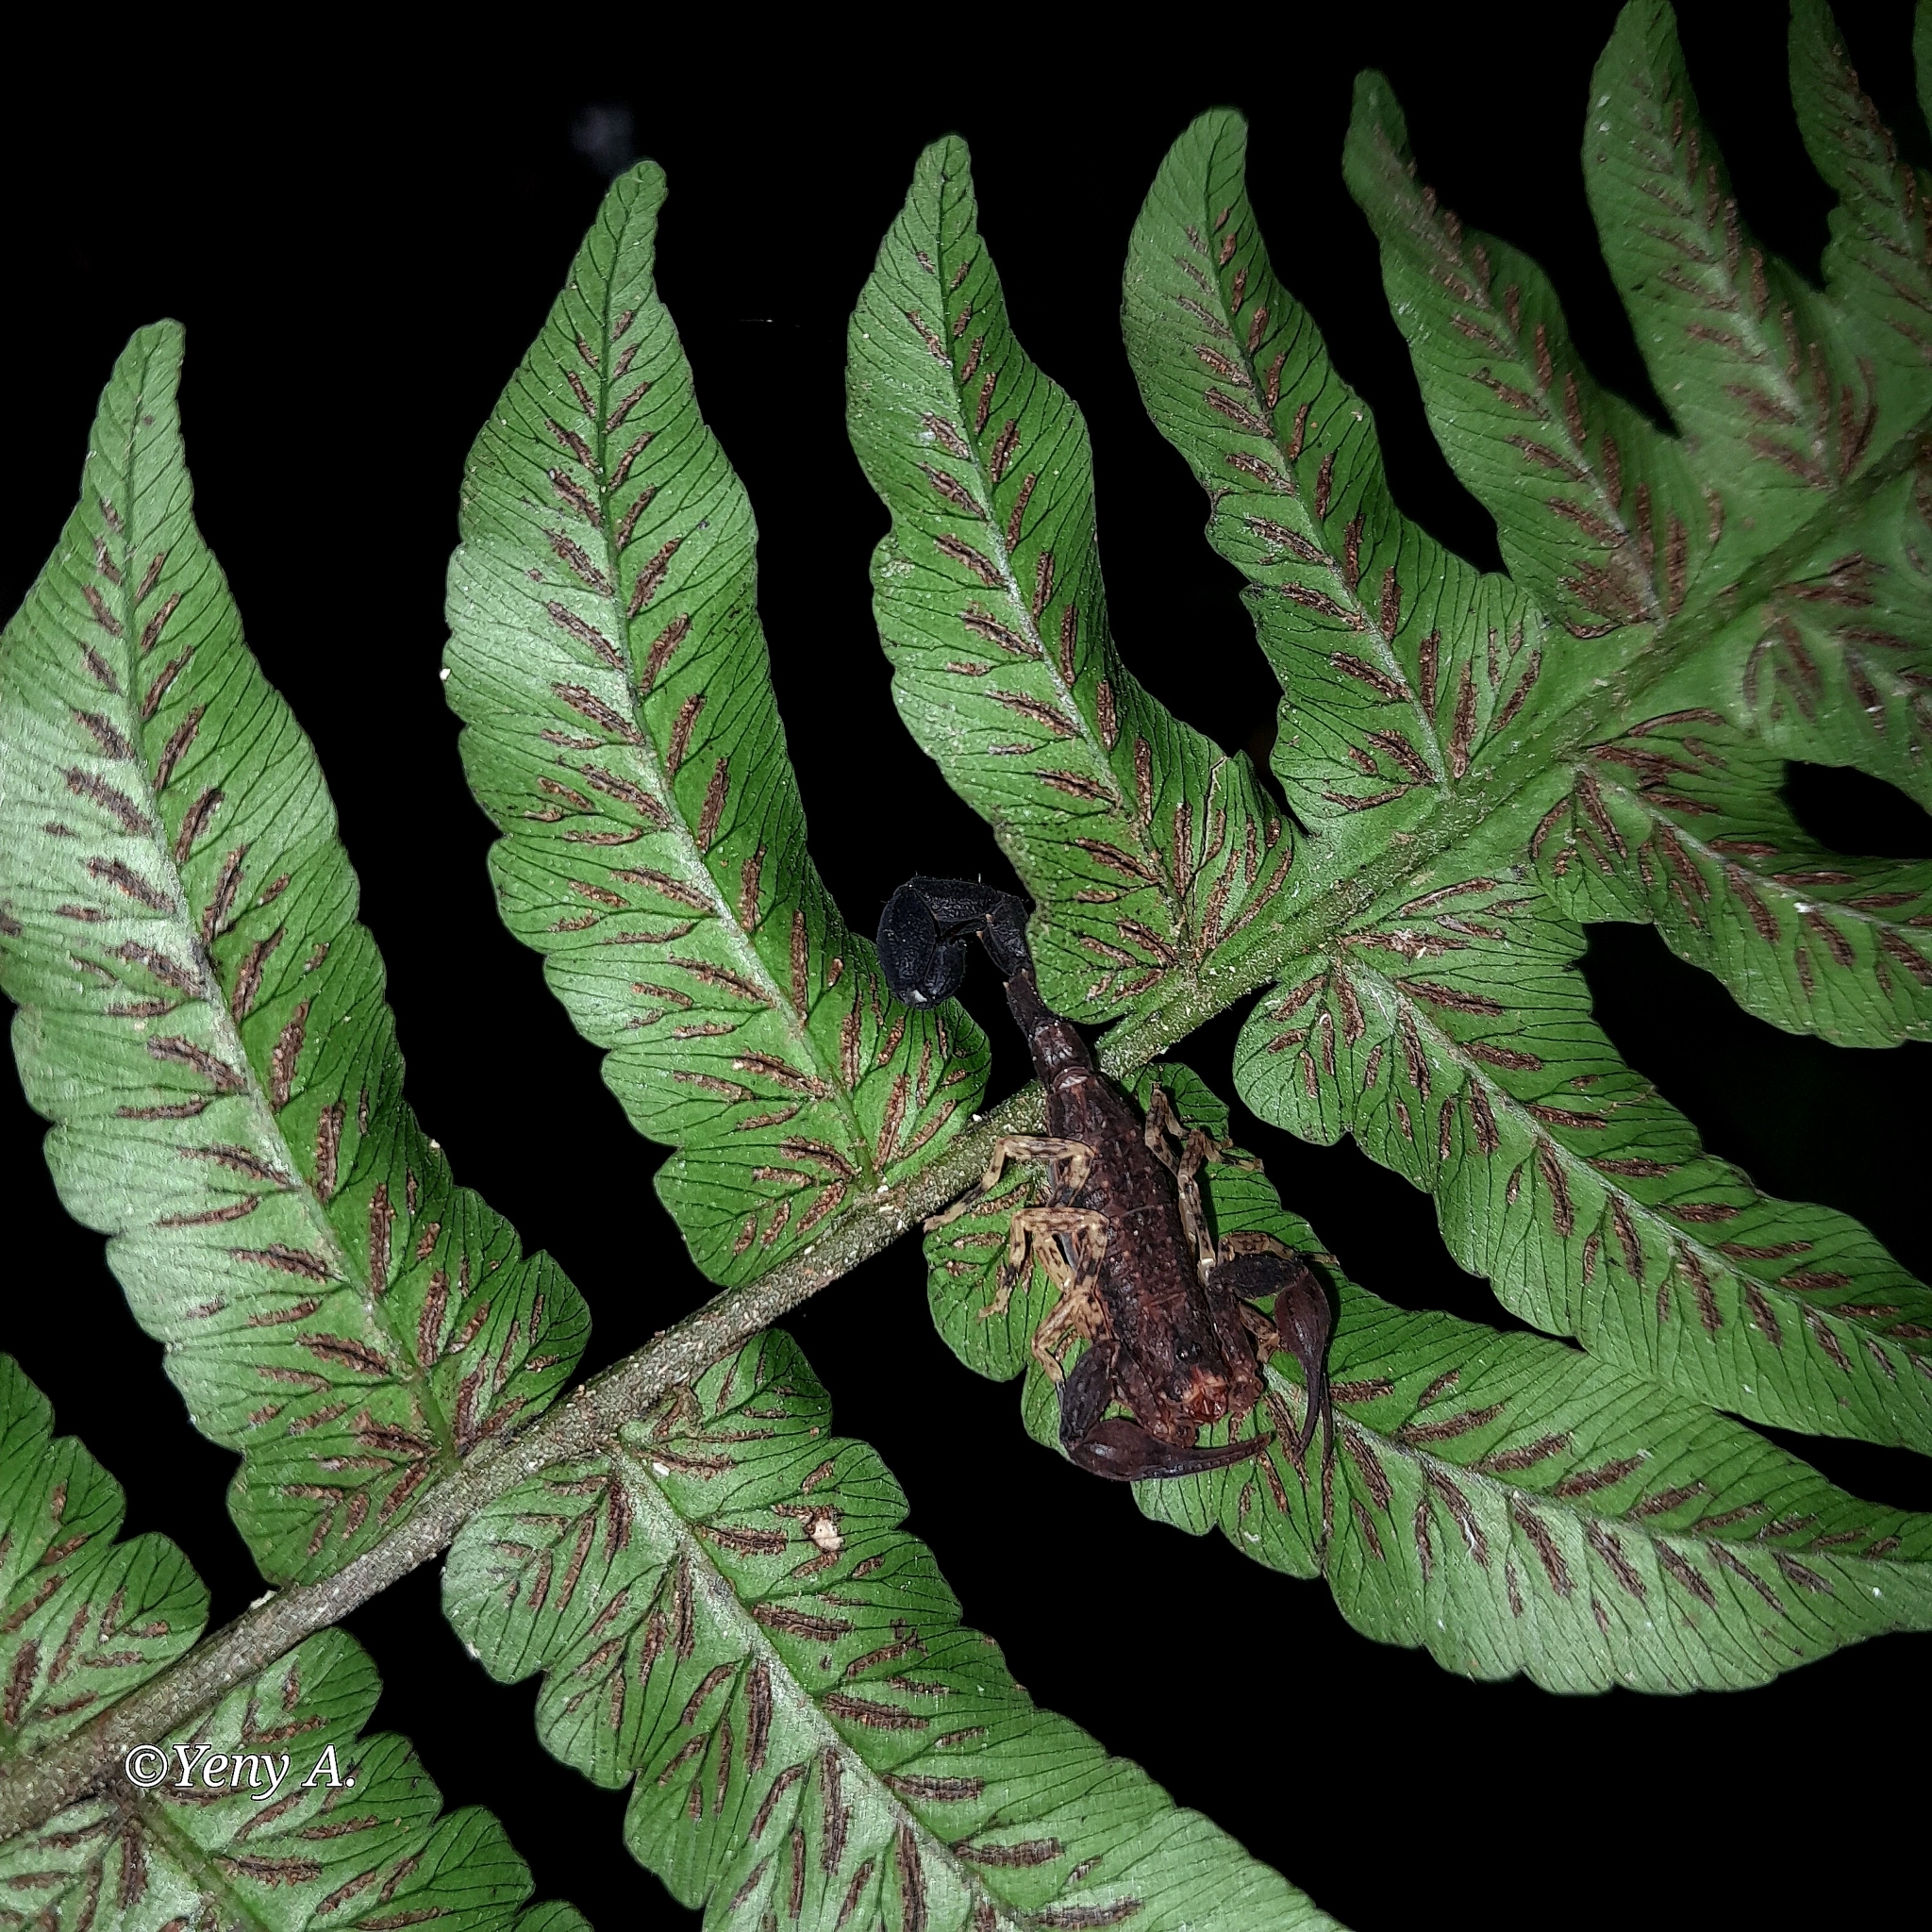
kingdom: Animalia
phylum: Arthropoda
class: Arachnida
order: Scorpiones
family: Buthidae
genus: Tityus
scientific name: Tityus bastosi
